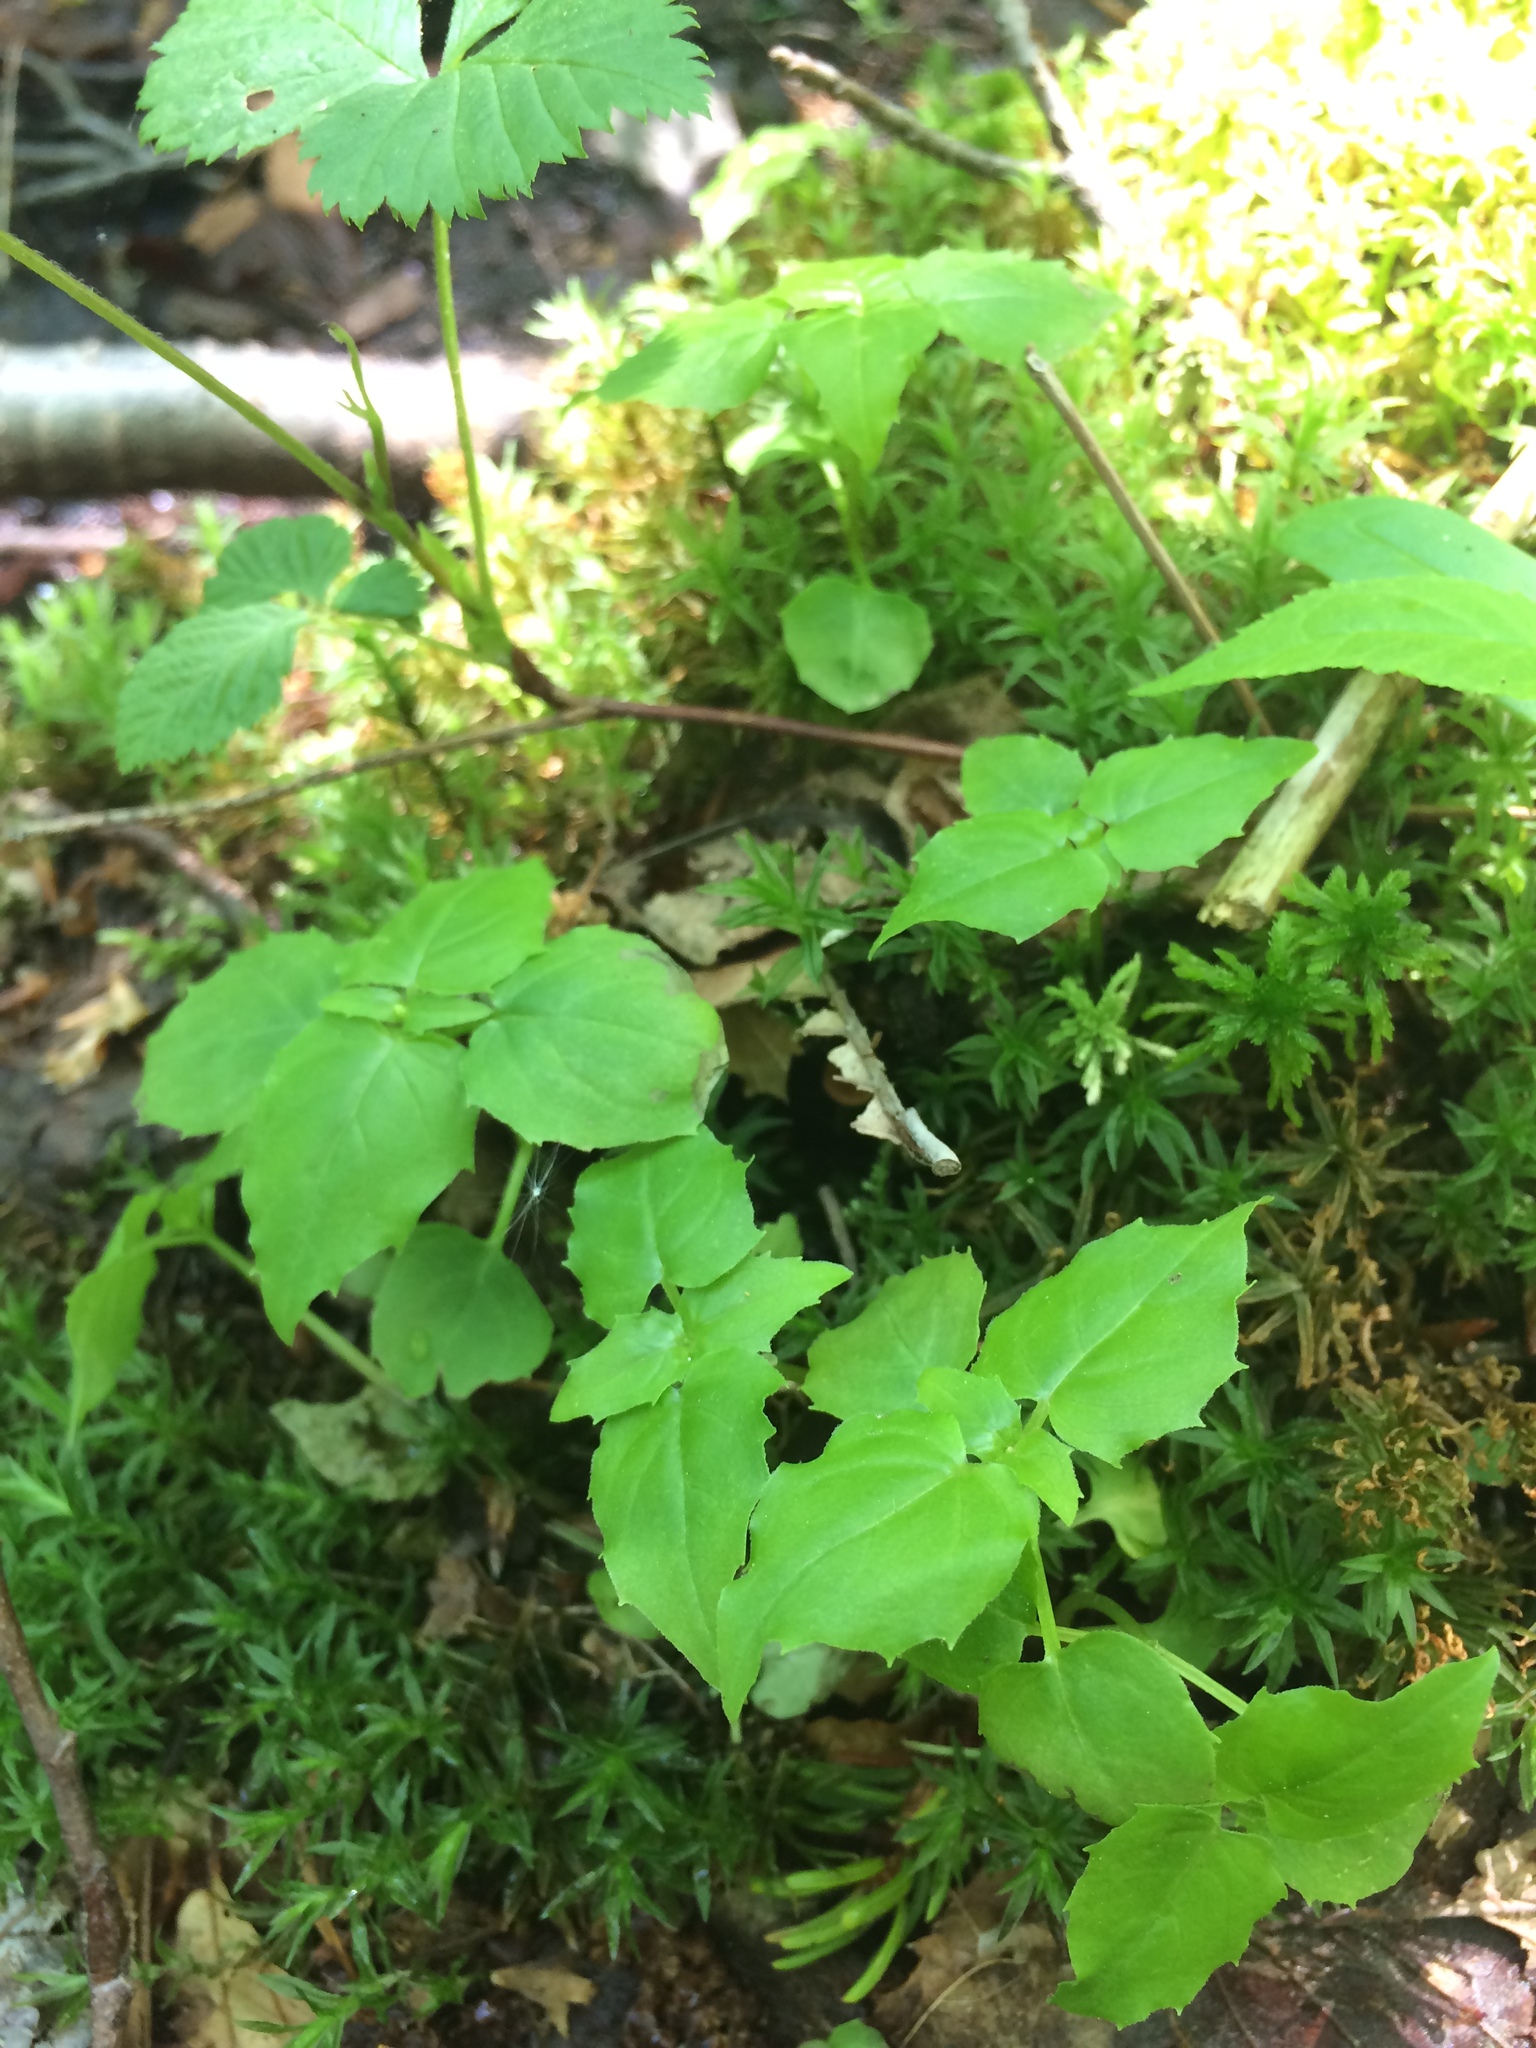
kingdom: Plantae
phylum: Tracheophyta
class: Magnoliopsida
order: Myrtales
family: Onagraceae
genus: Circaea
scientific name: Circaea alpina
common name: Alpine enchanter's-nightshade
